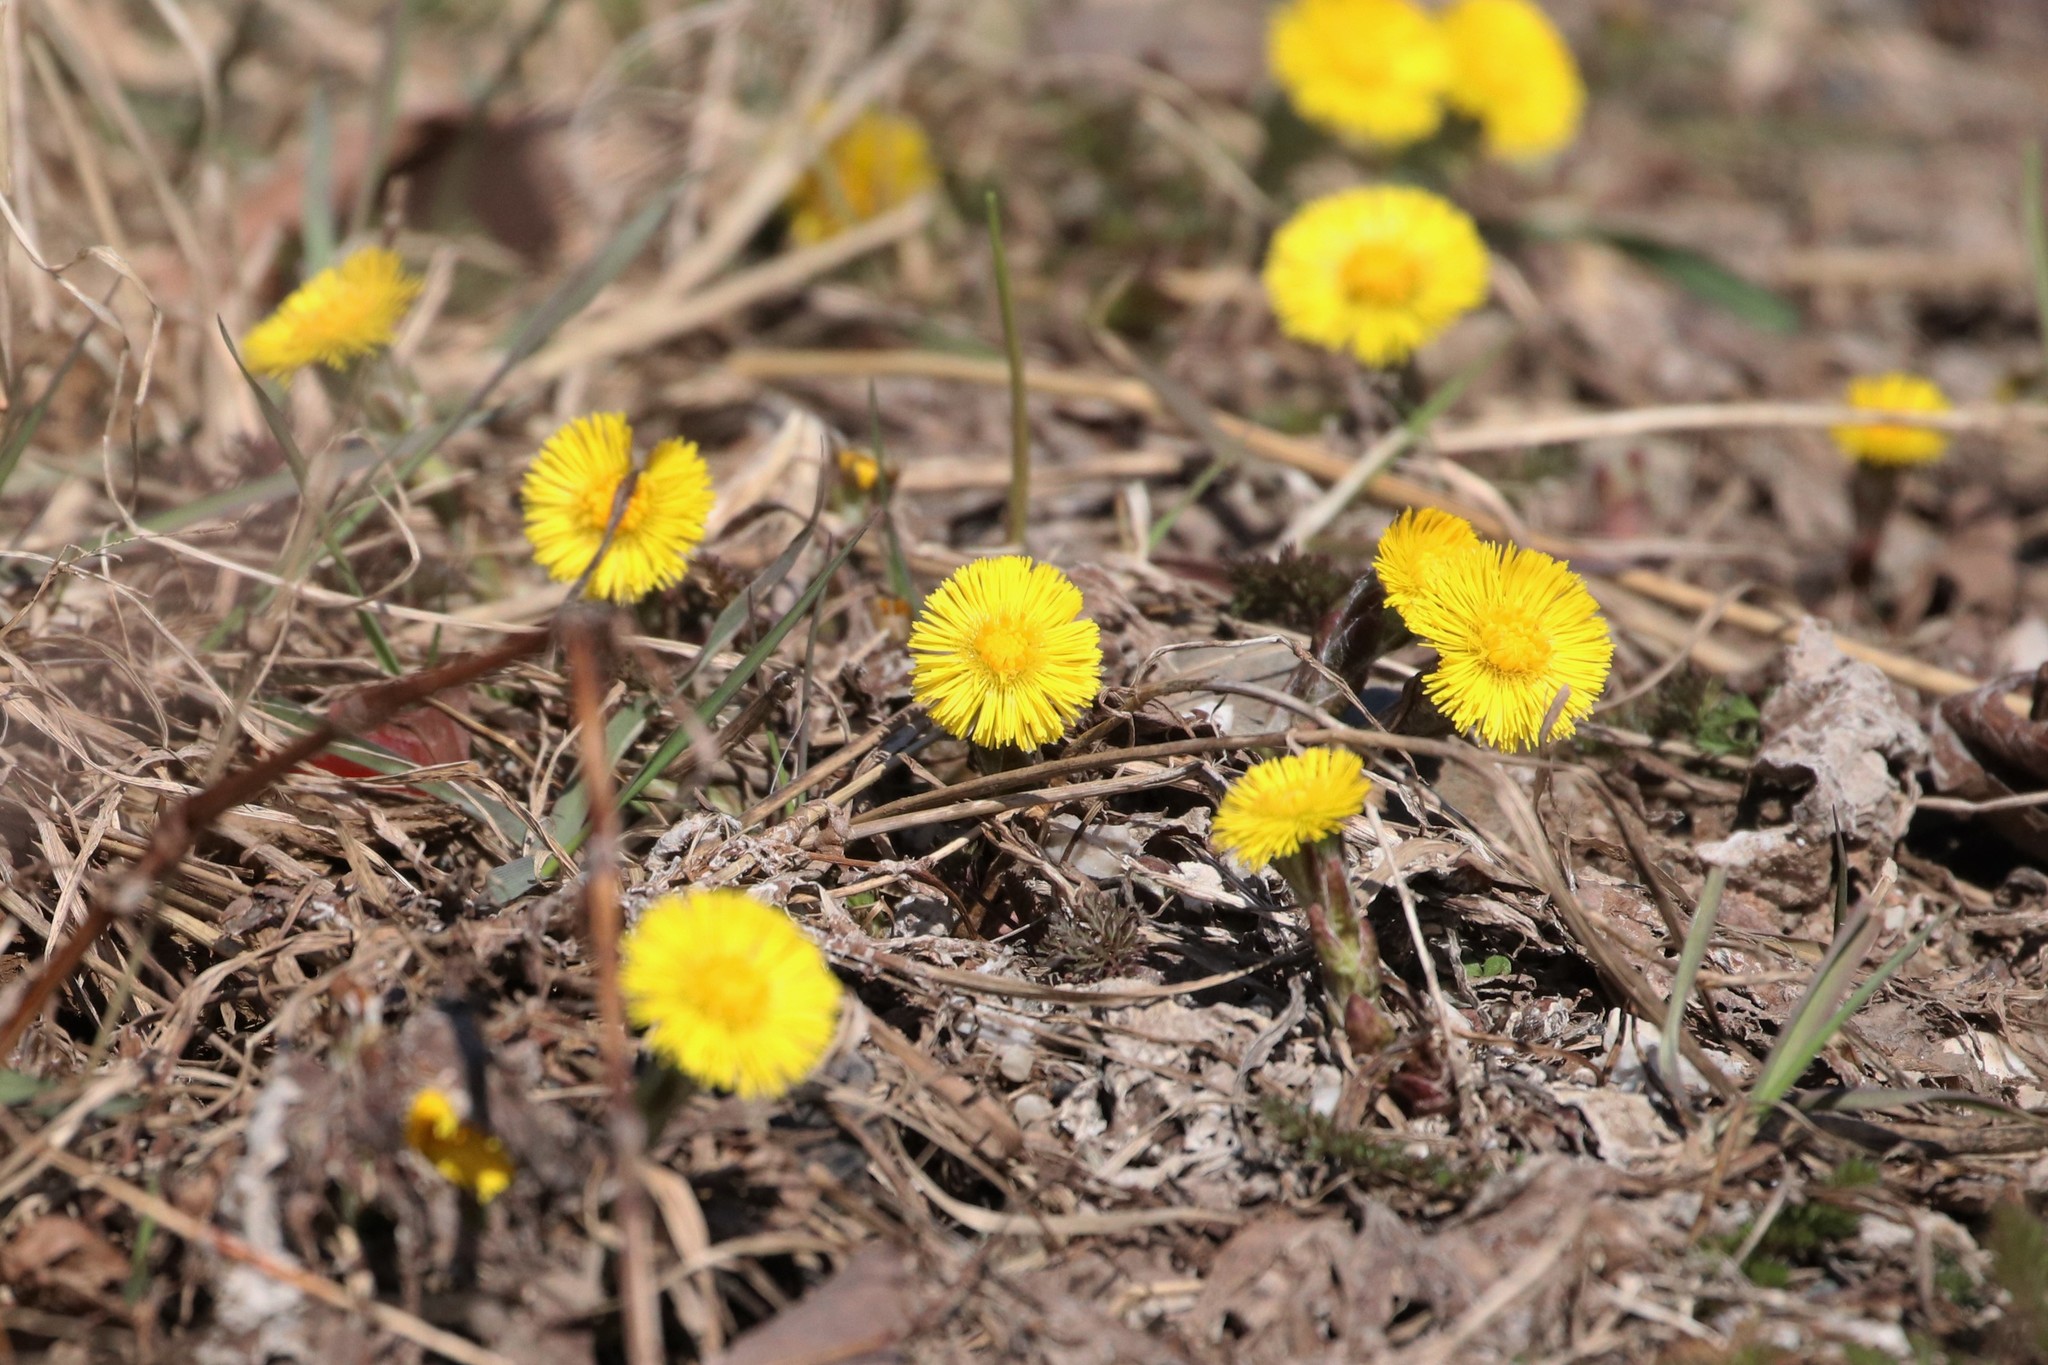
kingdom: Plantae
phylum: Tracheophyta
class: Magnoliopsida
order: Asterales
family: Asteraceae
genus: Tussilago
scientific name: Tussilago farfara
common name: Coltsfoot
